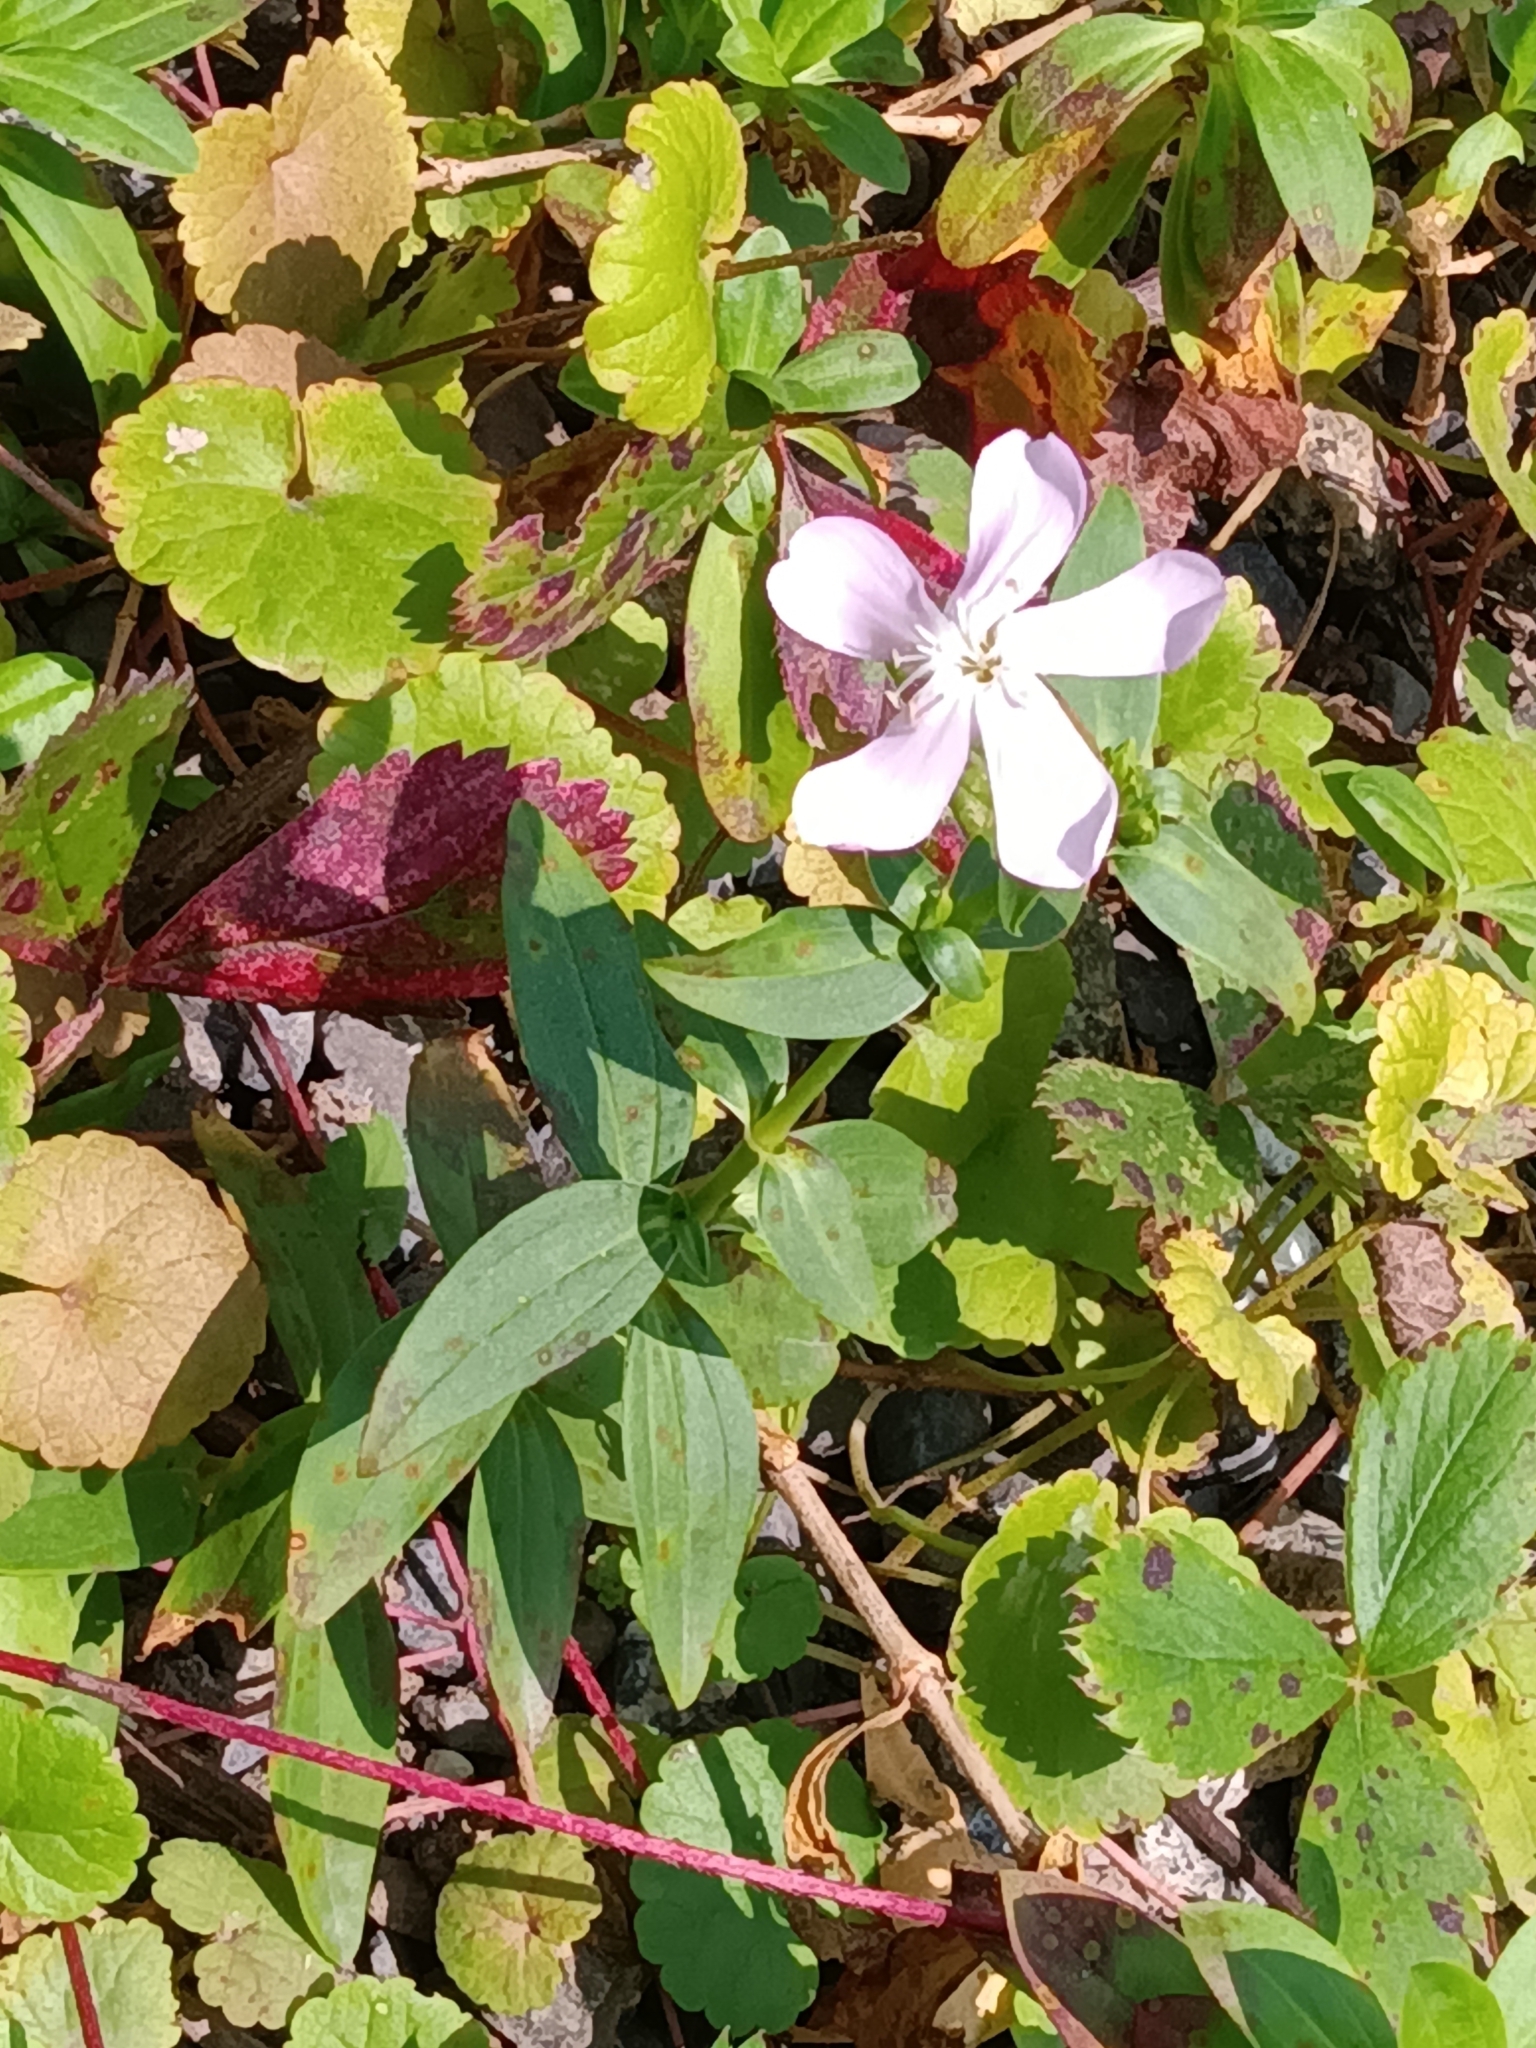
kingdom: Plantae
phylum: Tracheophyta
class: Magnoliopsida
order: Caryophyllales
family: Caryophyllaceae
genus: Saponaria
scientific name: Saponaria officinalis
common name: Soapwort
